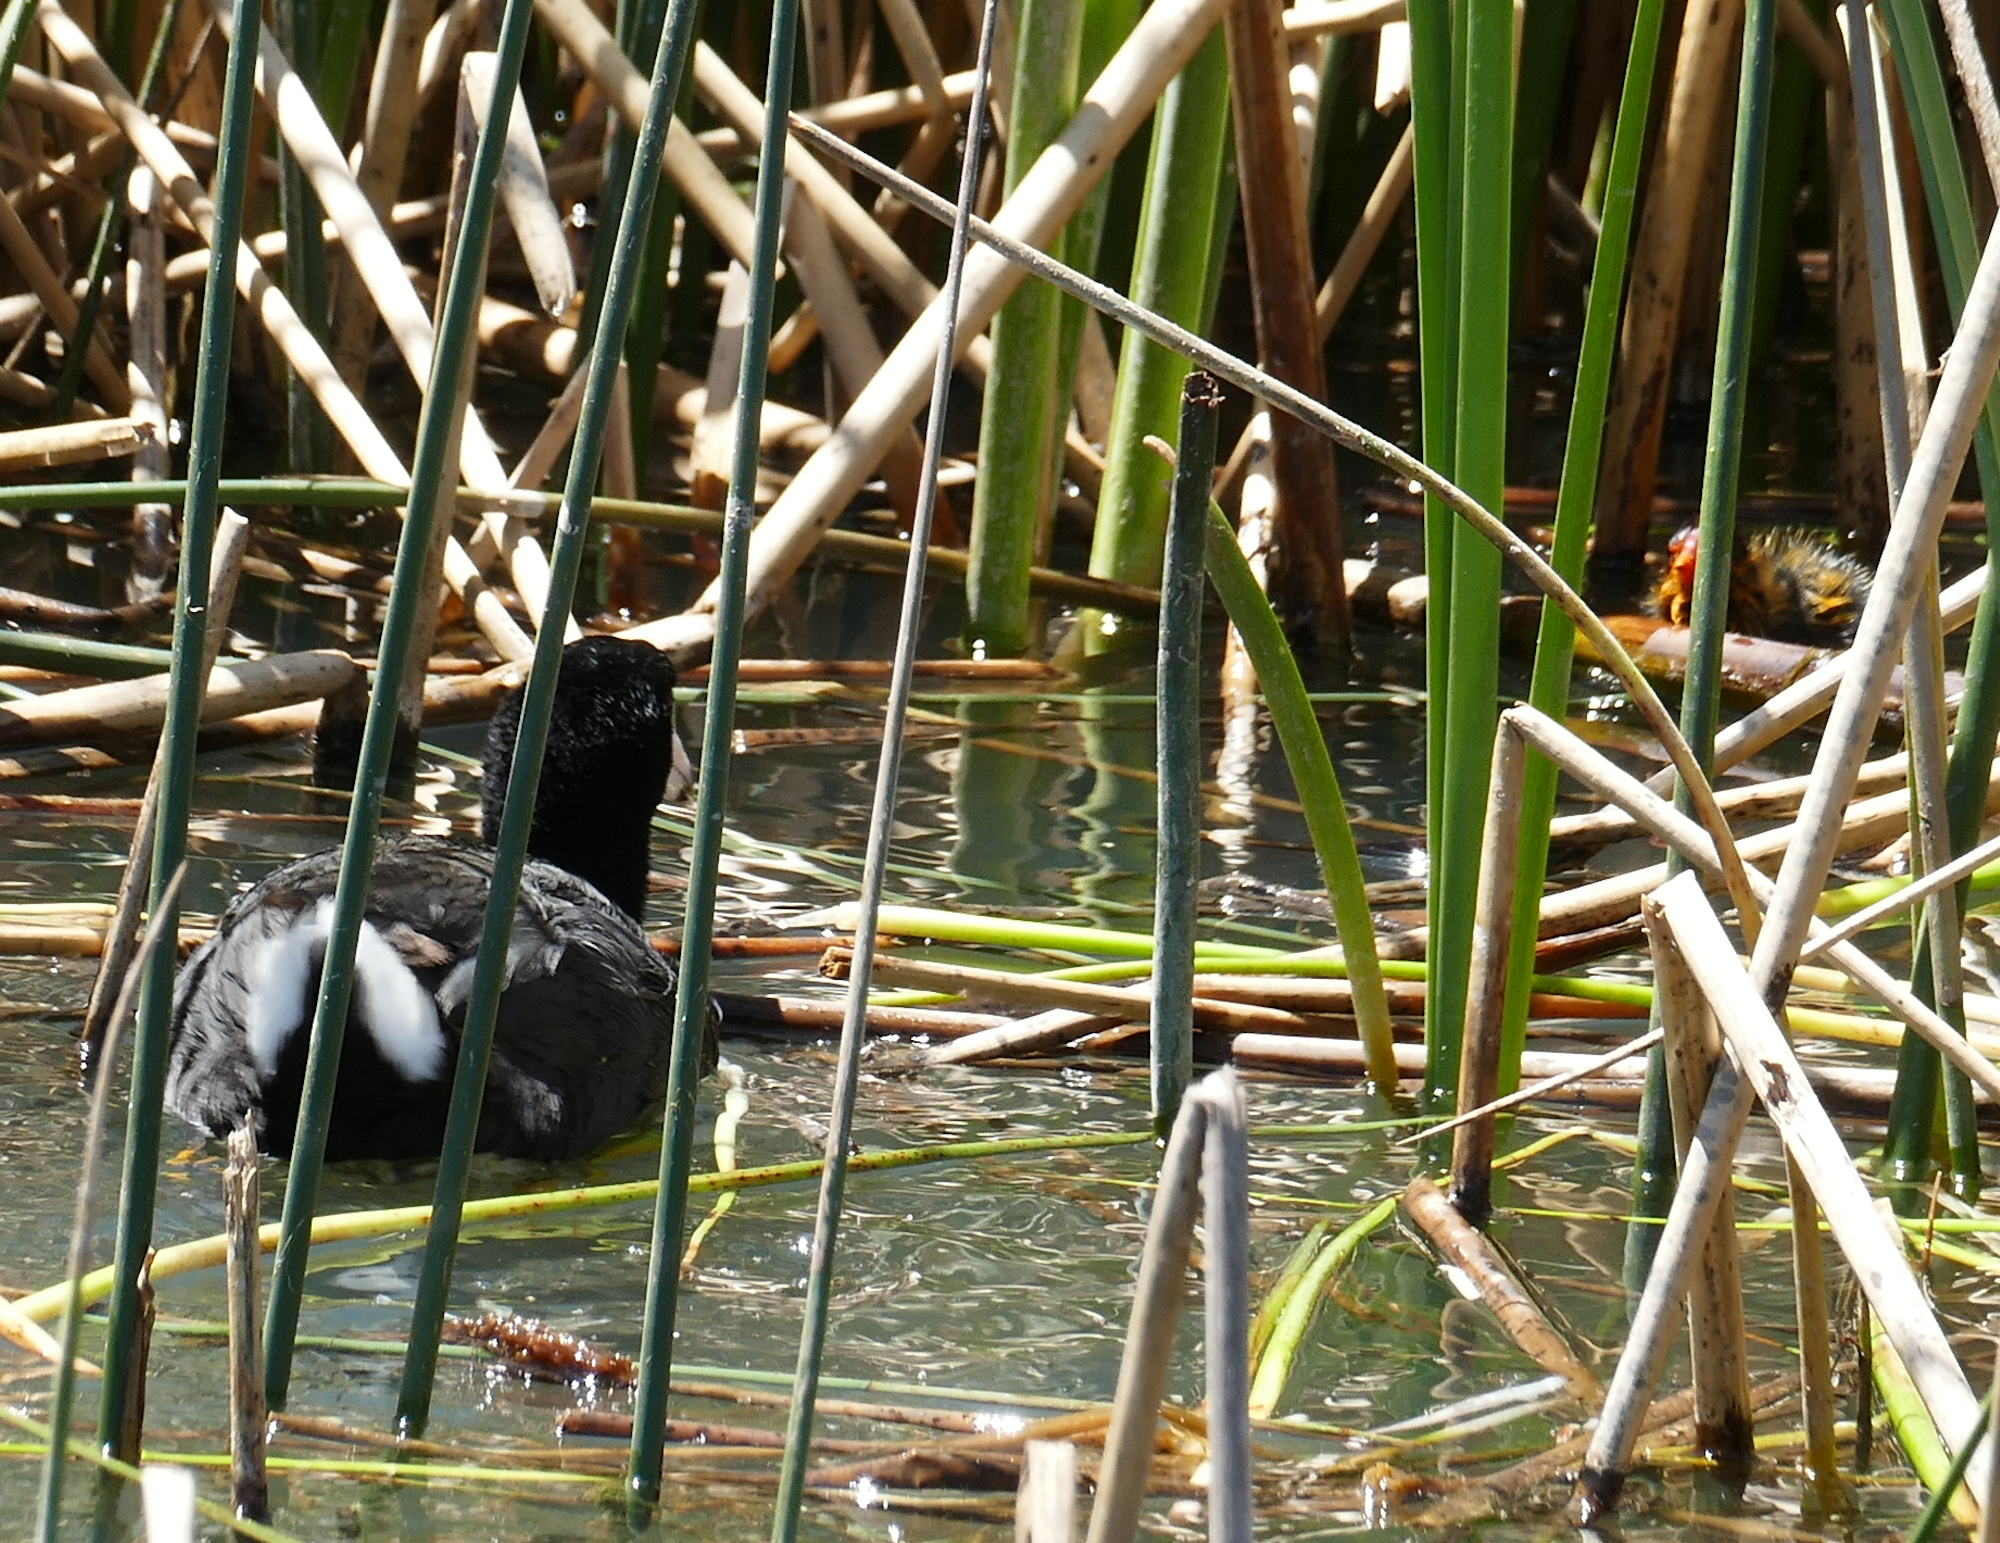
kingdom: Animalia
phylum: Chordata
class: Aves
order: Gruiformes
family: Rallidae
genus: Fulica
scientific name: Fulica americana
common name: American coot
